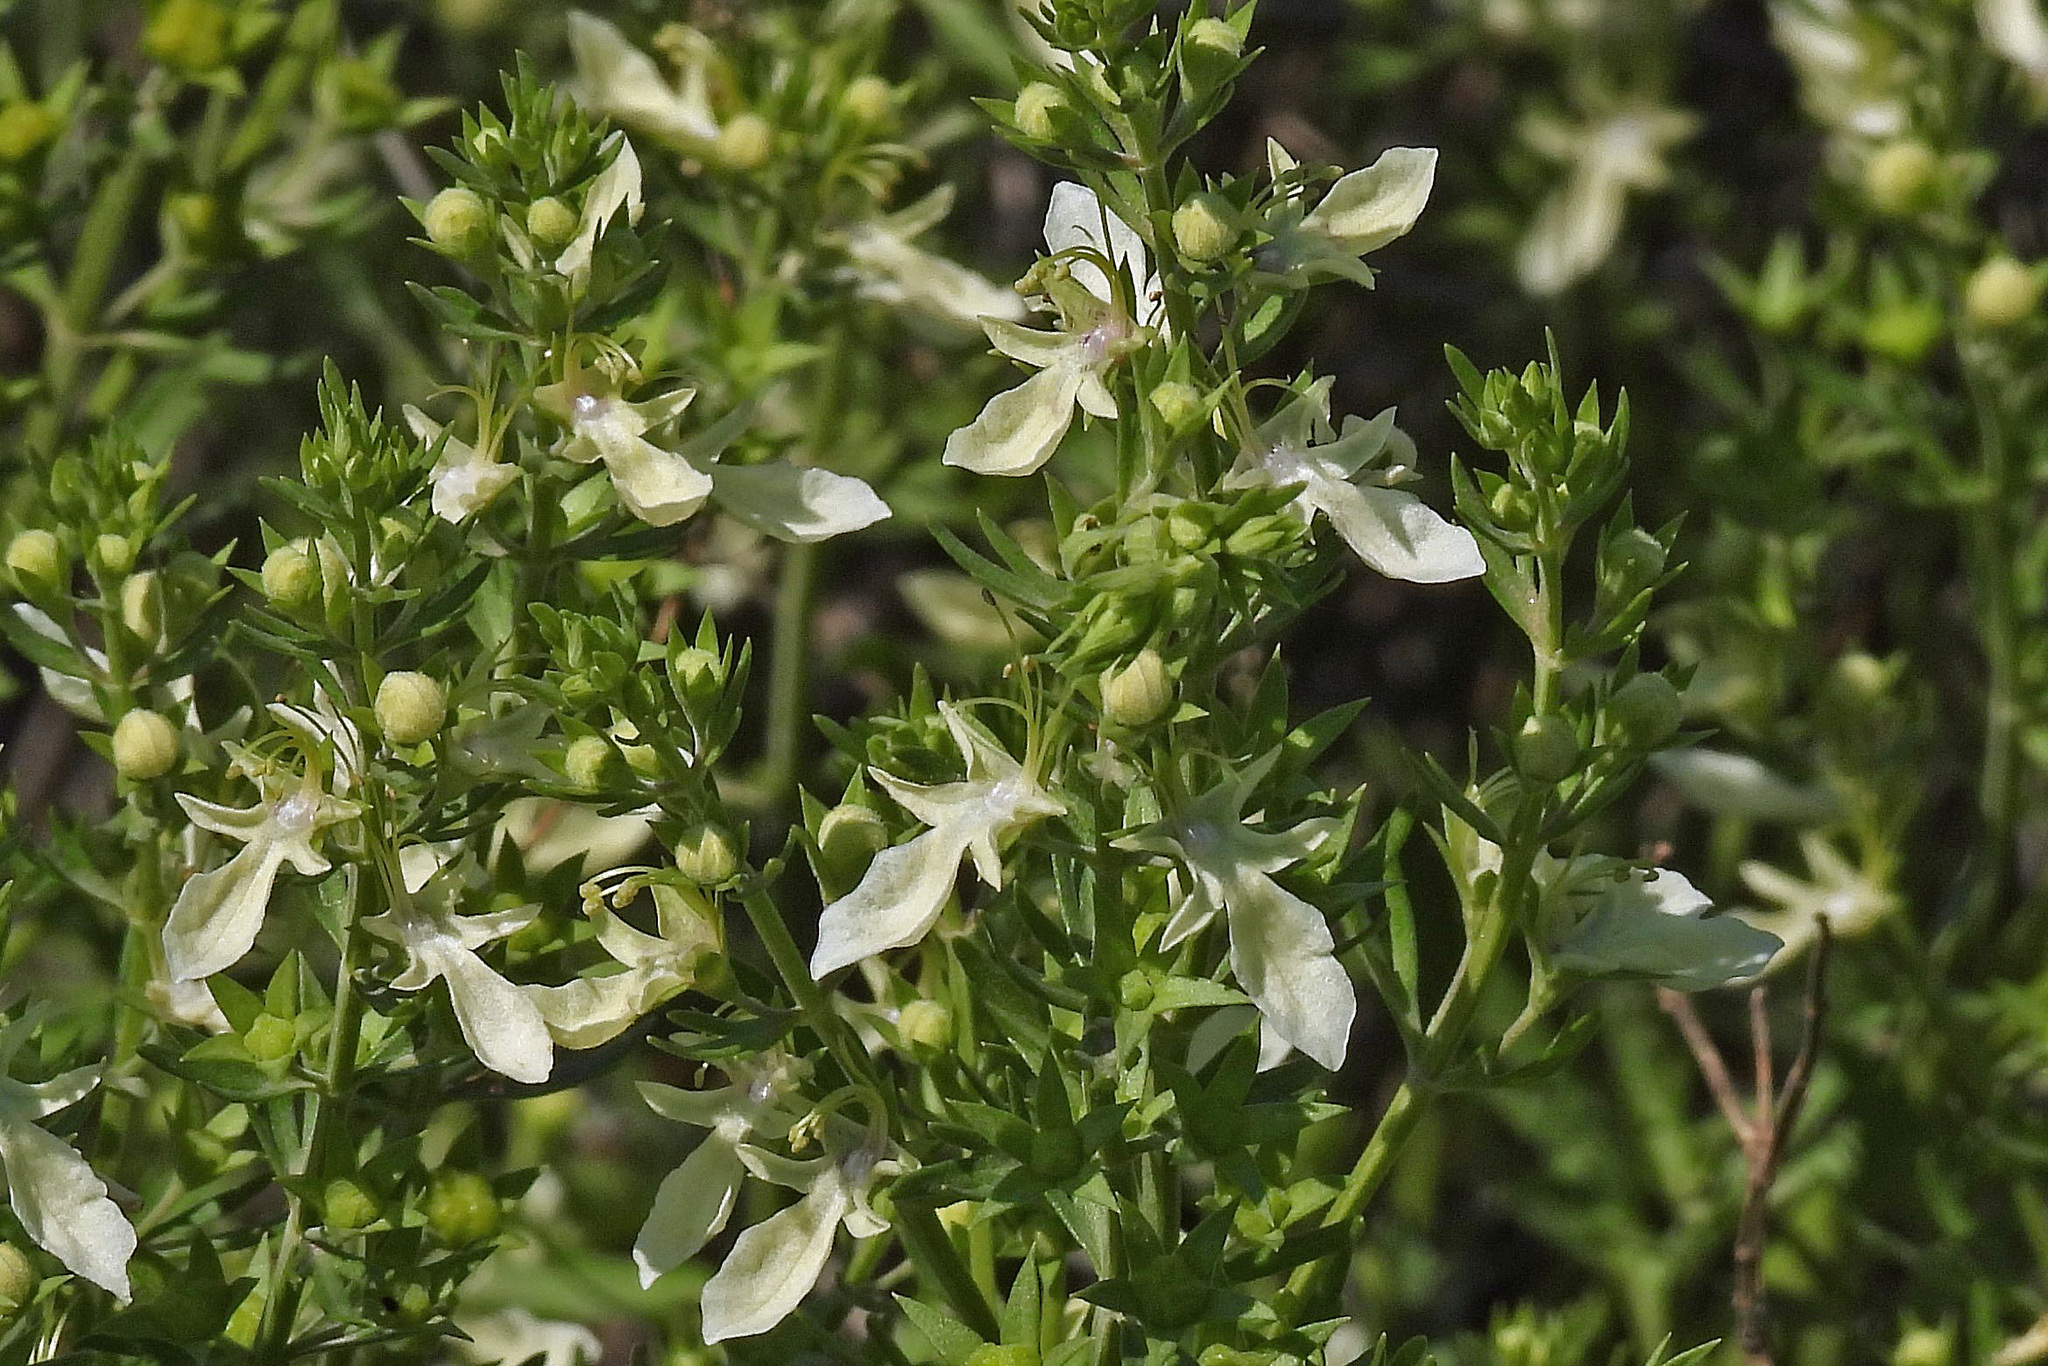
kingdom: Plantae
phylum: Tracheophyta
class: Magnoliopsida
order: Lamiales
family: Lamiaceae
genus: Teucrium
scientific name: Teucrium cubense
